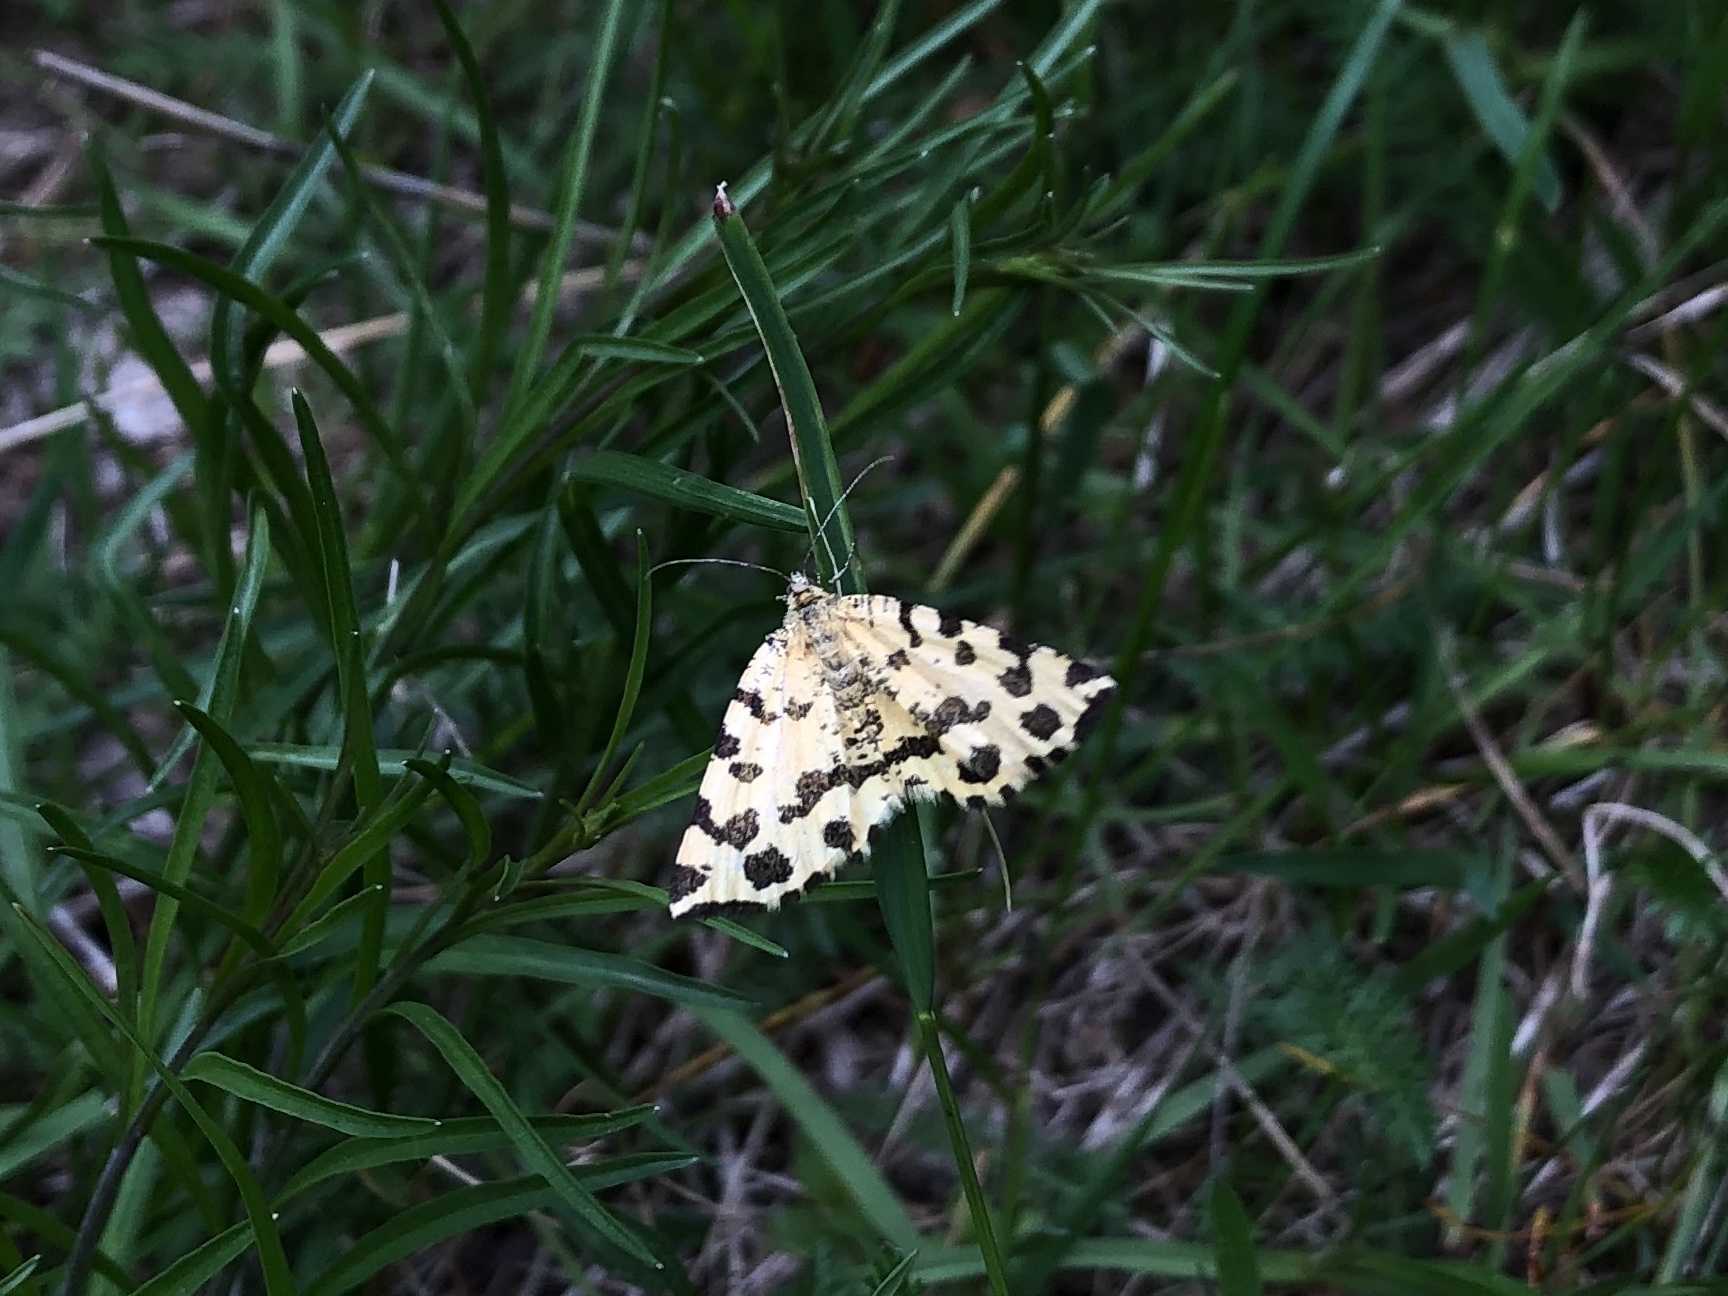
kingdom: Animalia
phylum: Arthropoda
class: Insecta
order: Lepidoptera
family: Geometridae
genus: Pseudopanthera
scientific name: Pseudopanthera macularia
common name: Speckled yellow
